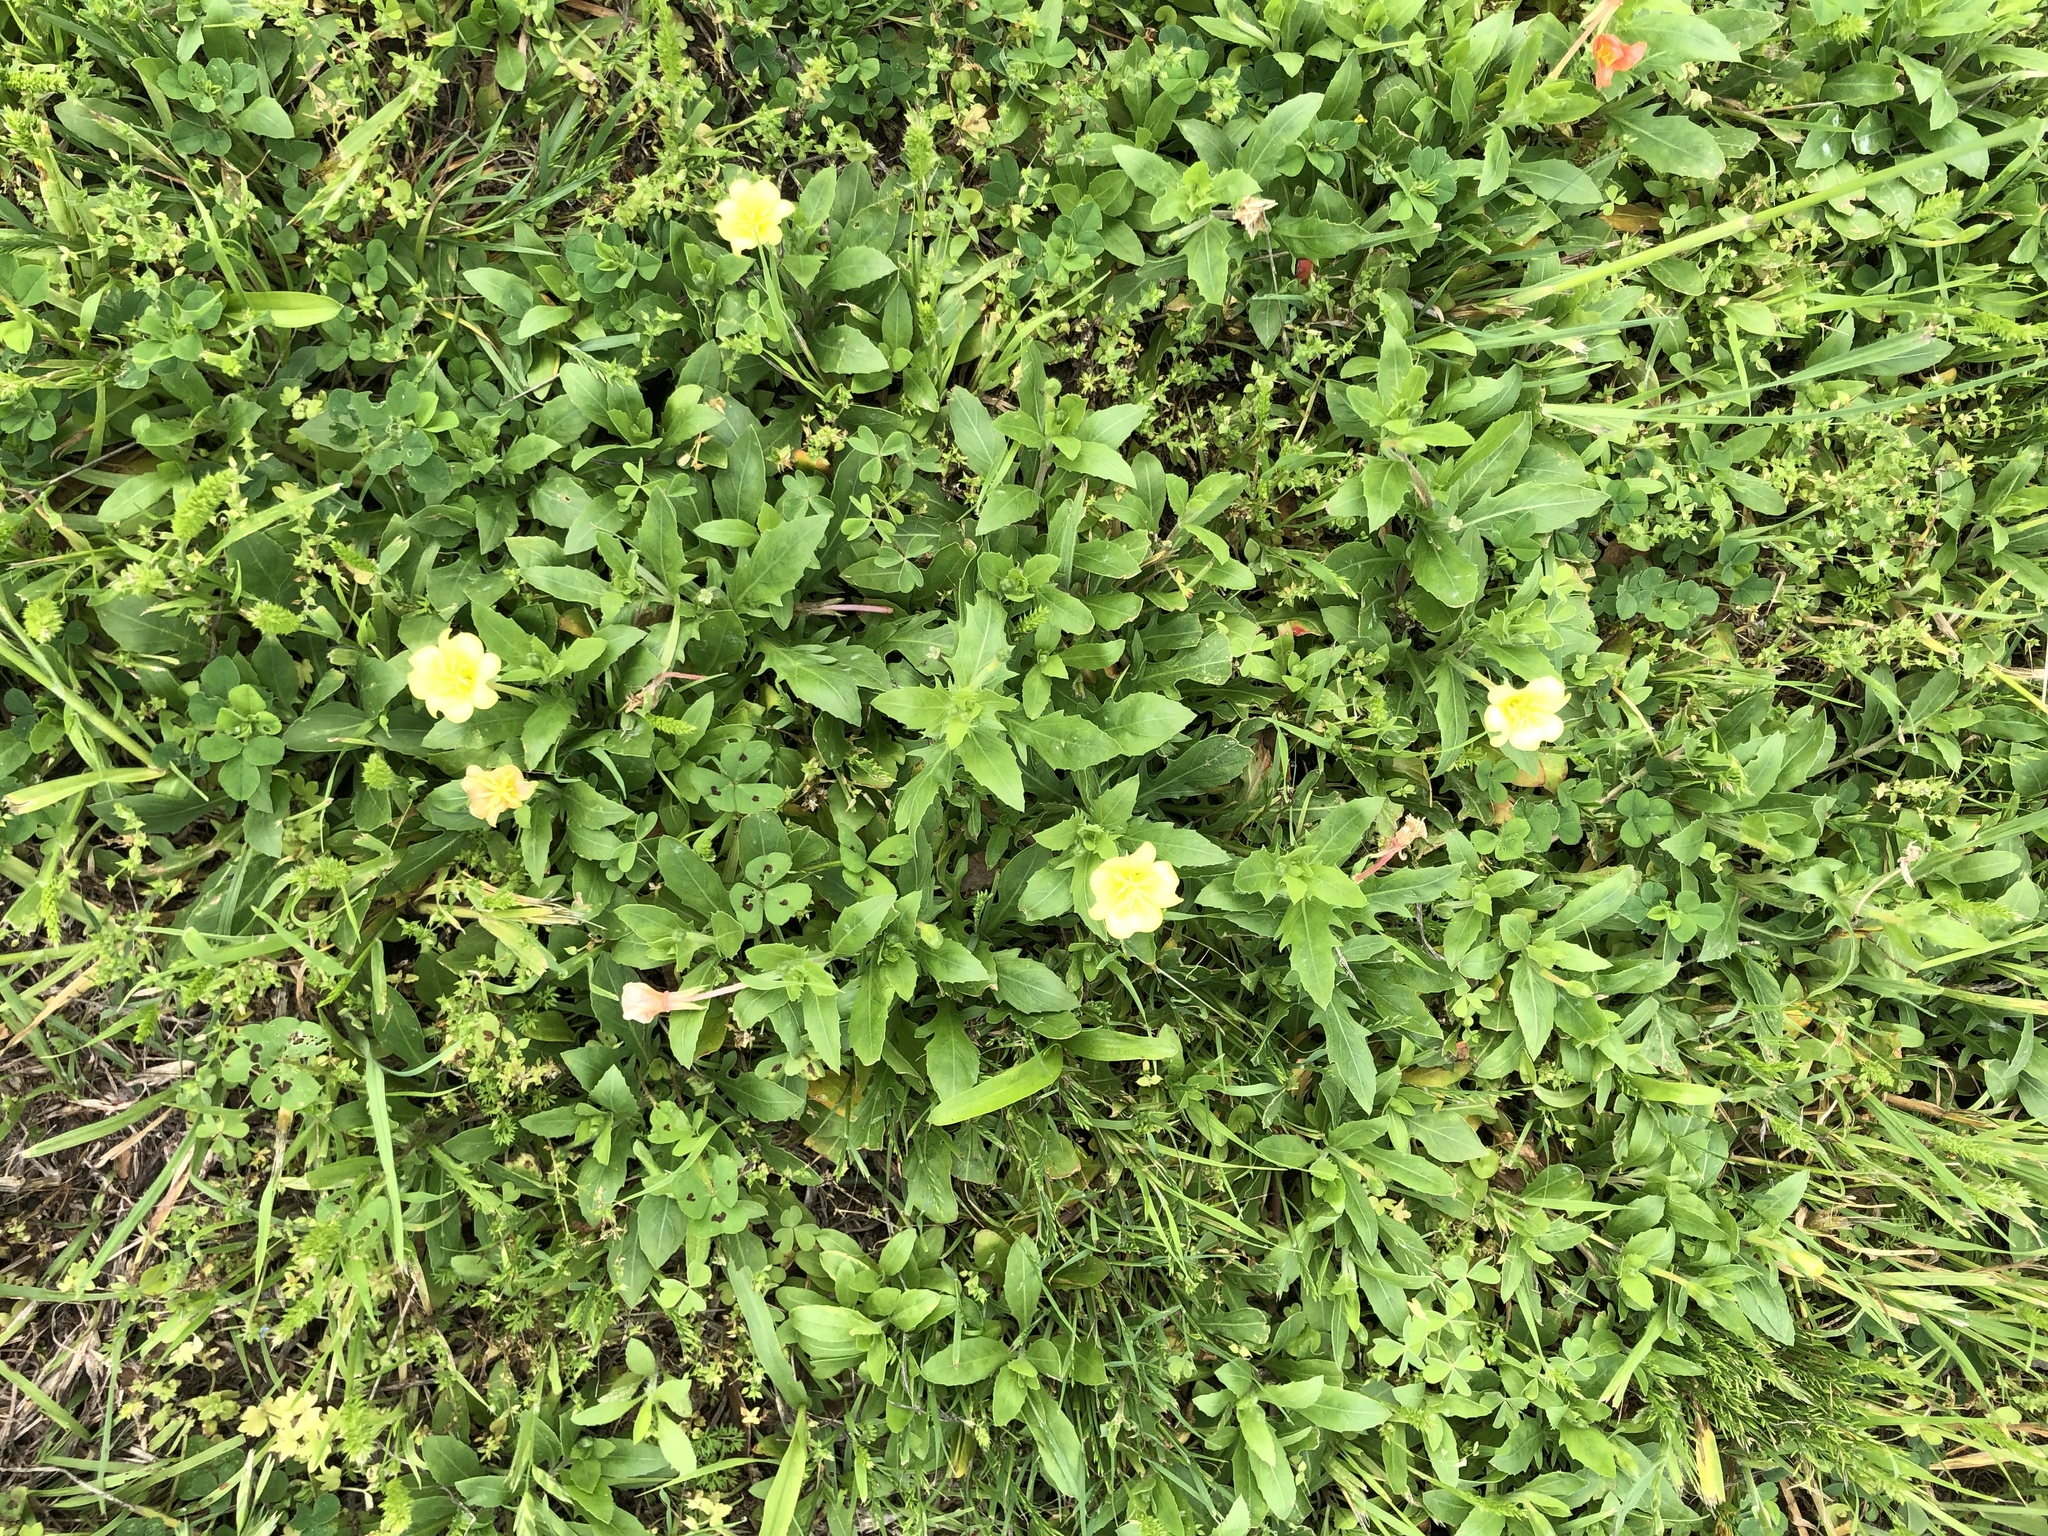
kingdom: Plantae
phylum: Tracheophyta
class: Magnoliopsida
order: Myrtales
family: Onagraceae
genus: Oenothera
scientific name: Oenothera laciniata
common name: Cut-leaved evening-primrose
